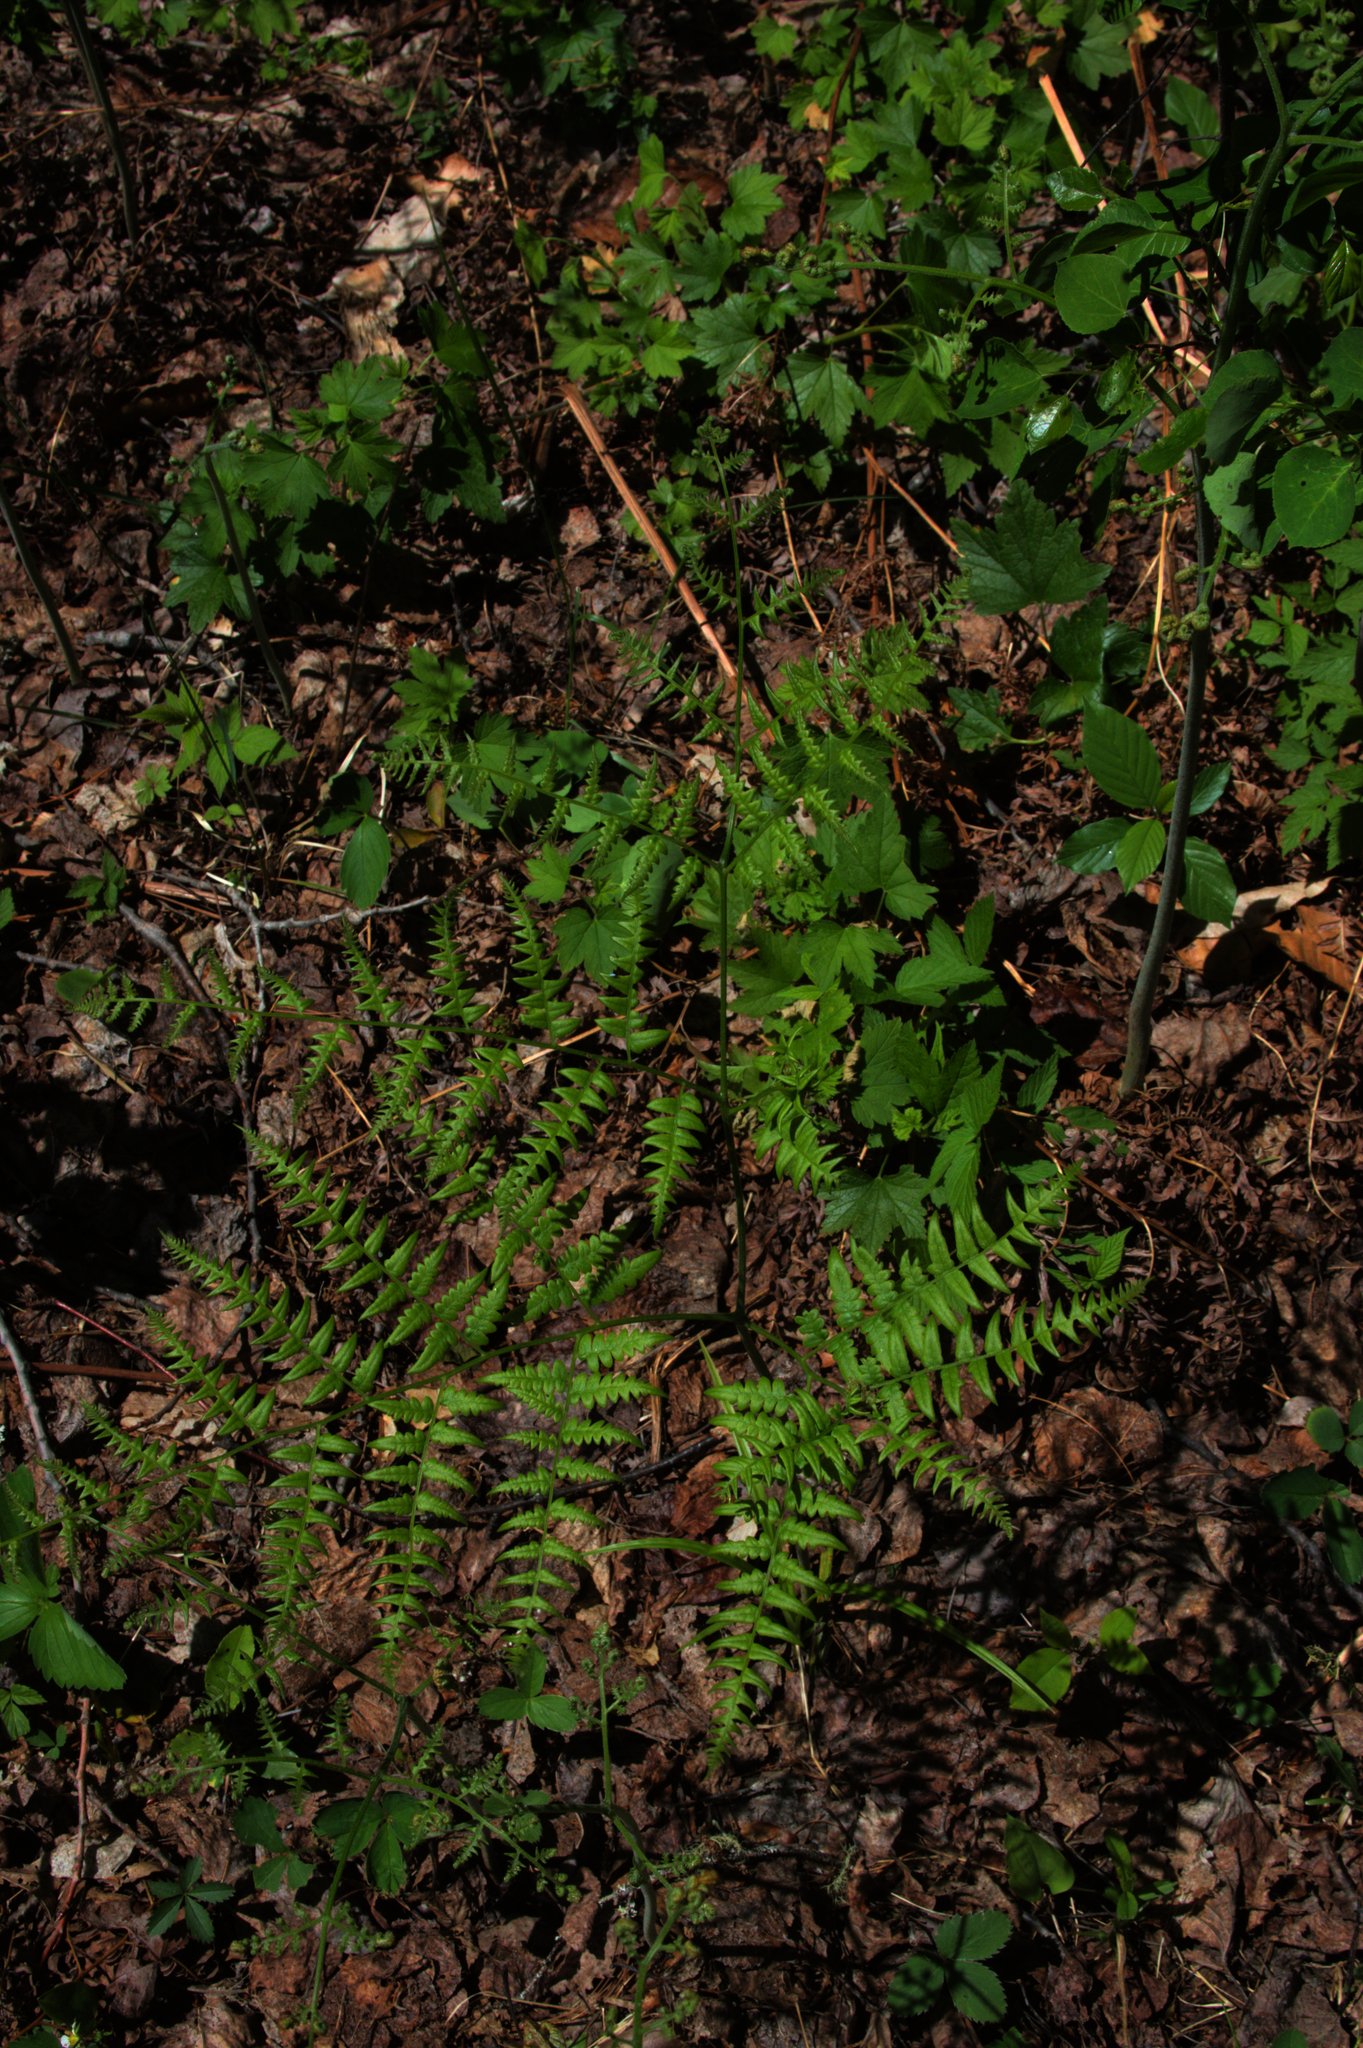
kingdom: Plantae
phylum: Tracheophyta
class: Polypodiopsida
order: Polypodiales
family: Dennstaedtiaceae
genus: Pteridium
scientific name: Pteridium aquilinum
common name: Bracken
